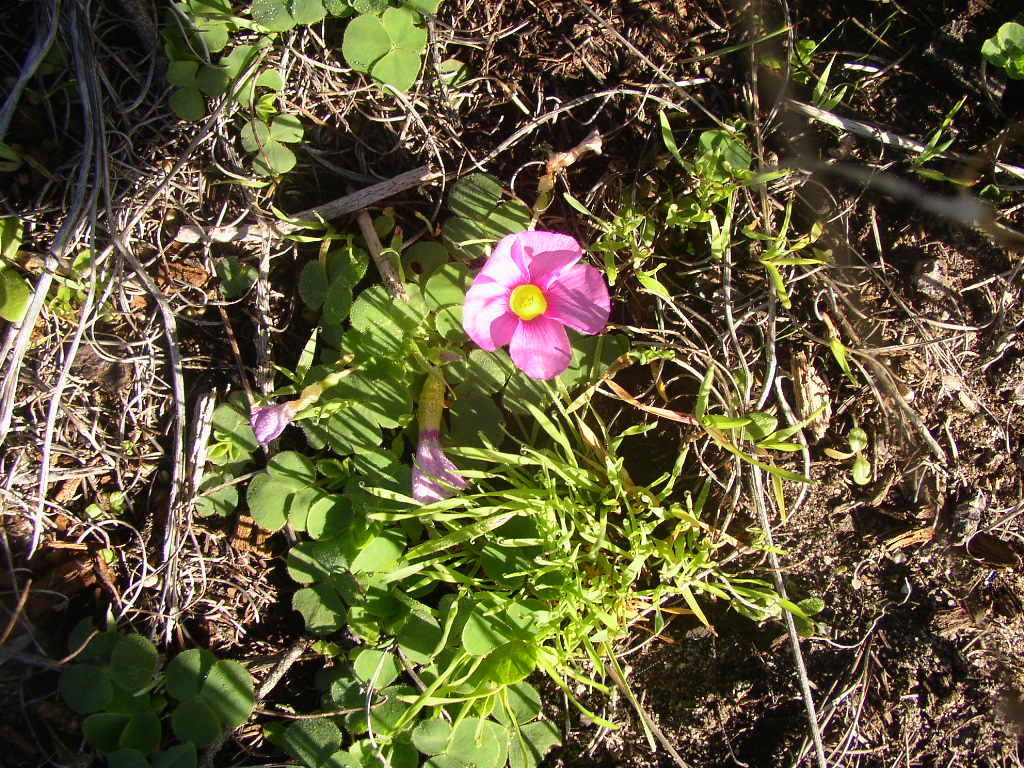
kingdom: Plantae
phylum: Tracheophyta
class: Magnoliopsida
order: Oxalidales
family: Oxalidaceae
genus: Oxalis
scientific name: Oxalis purpurea
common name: Purple woodsorrel
